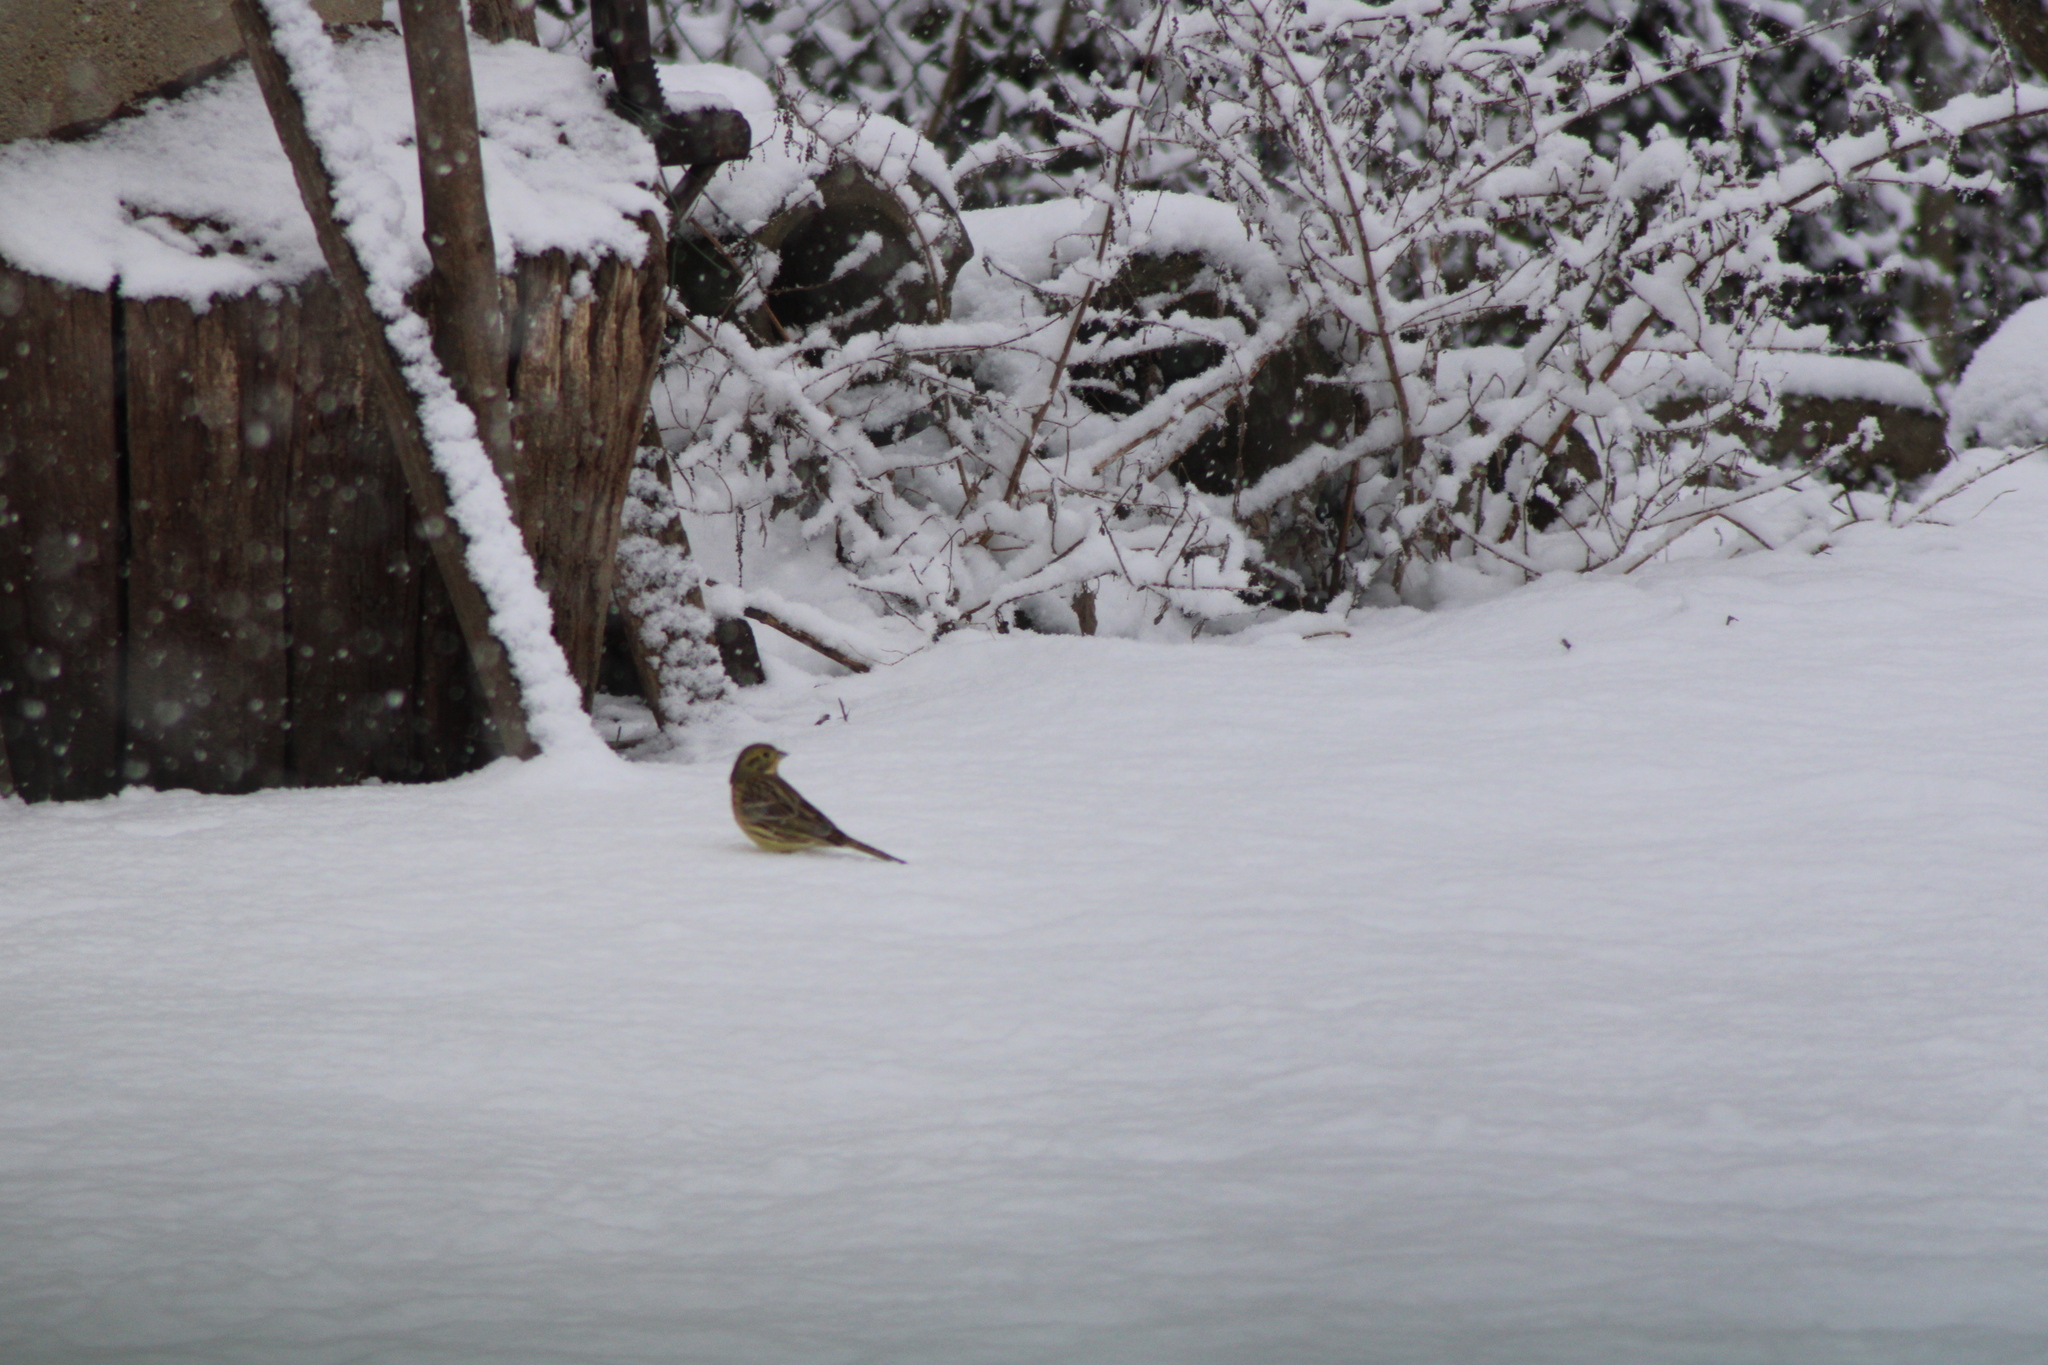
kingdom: Animalia
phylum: Chordata
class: Aves
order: Passeriformes
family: Emberizidae
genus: Emberiza
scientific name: Emberiza citrinella
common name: Yellowhammer
